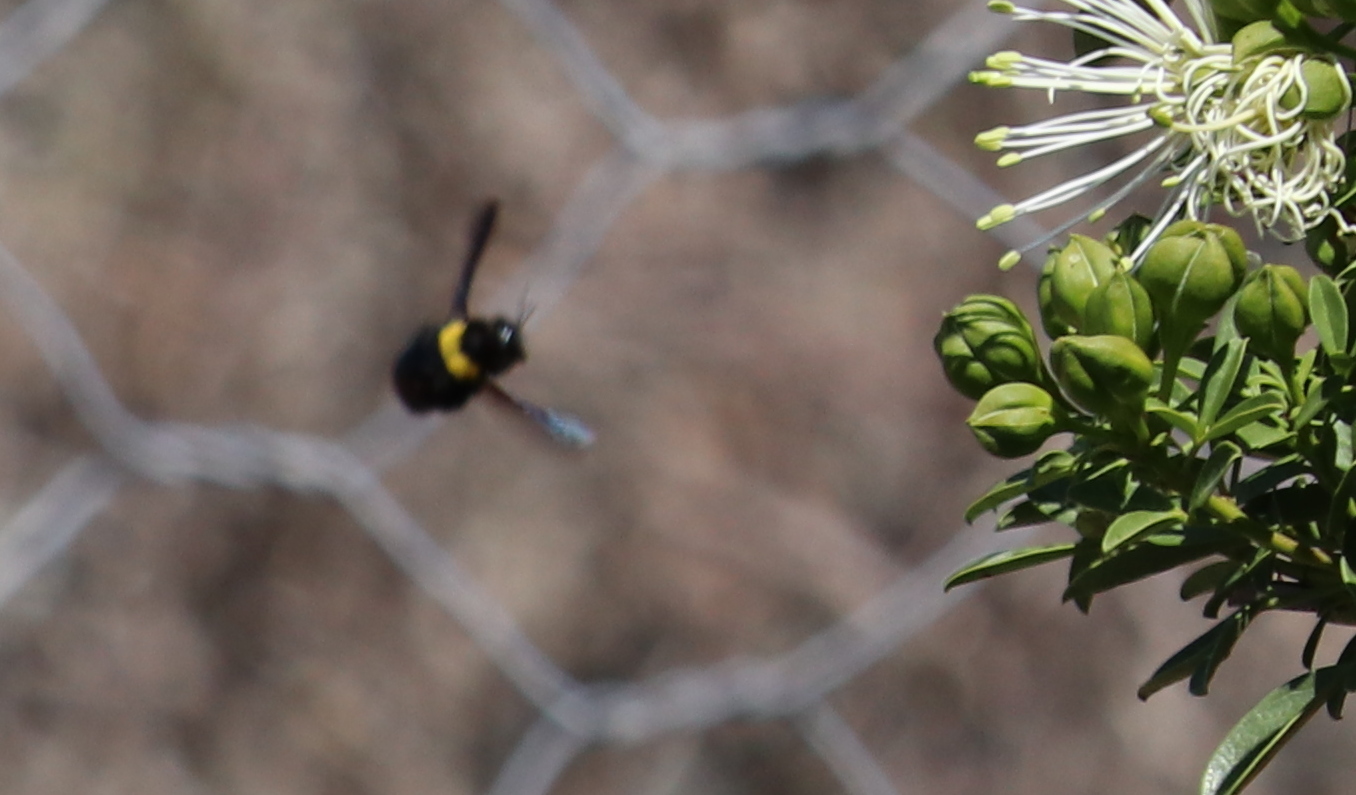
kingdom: Animalia
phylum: Arthropoda
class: Insecta
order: Hymenoptera
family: Apidae
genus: Xylocopa
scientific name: Xylocopa flavicollis
